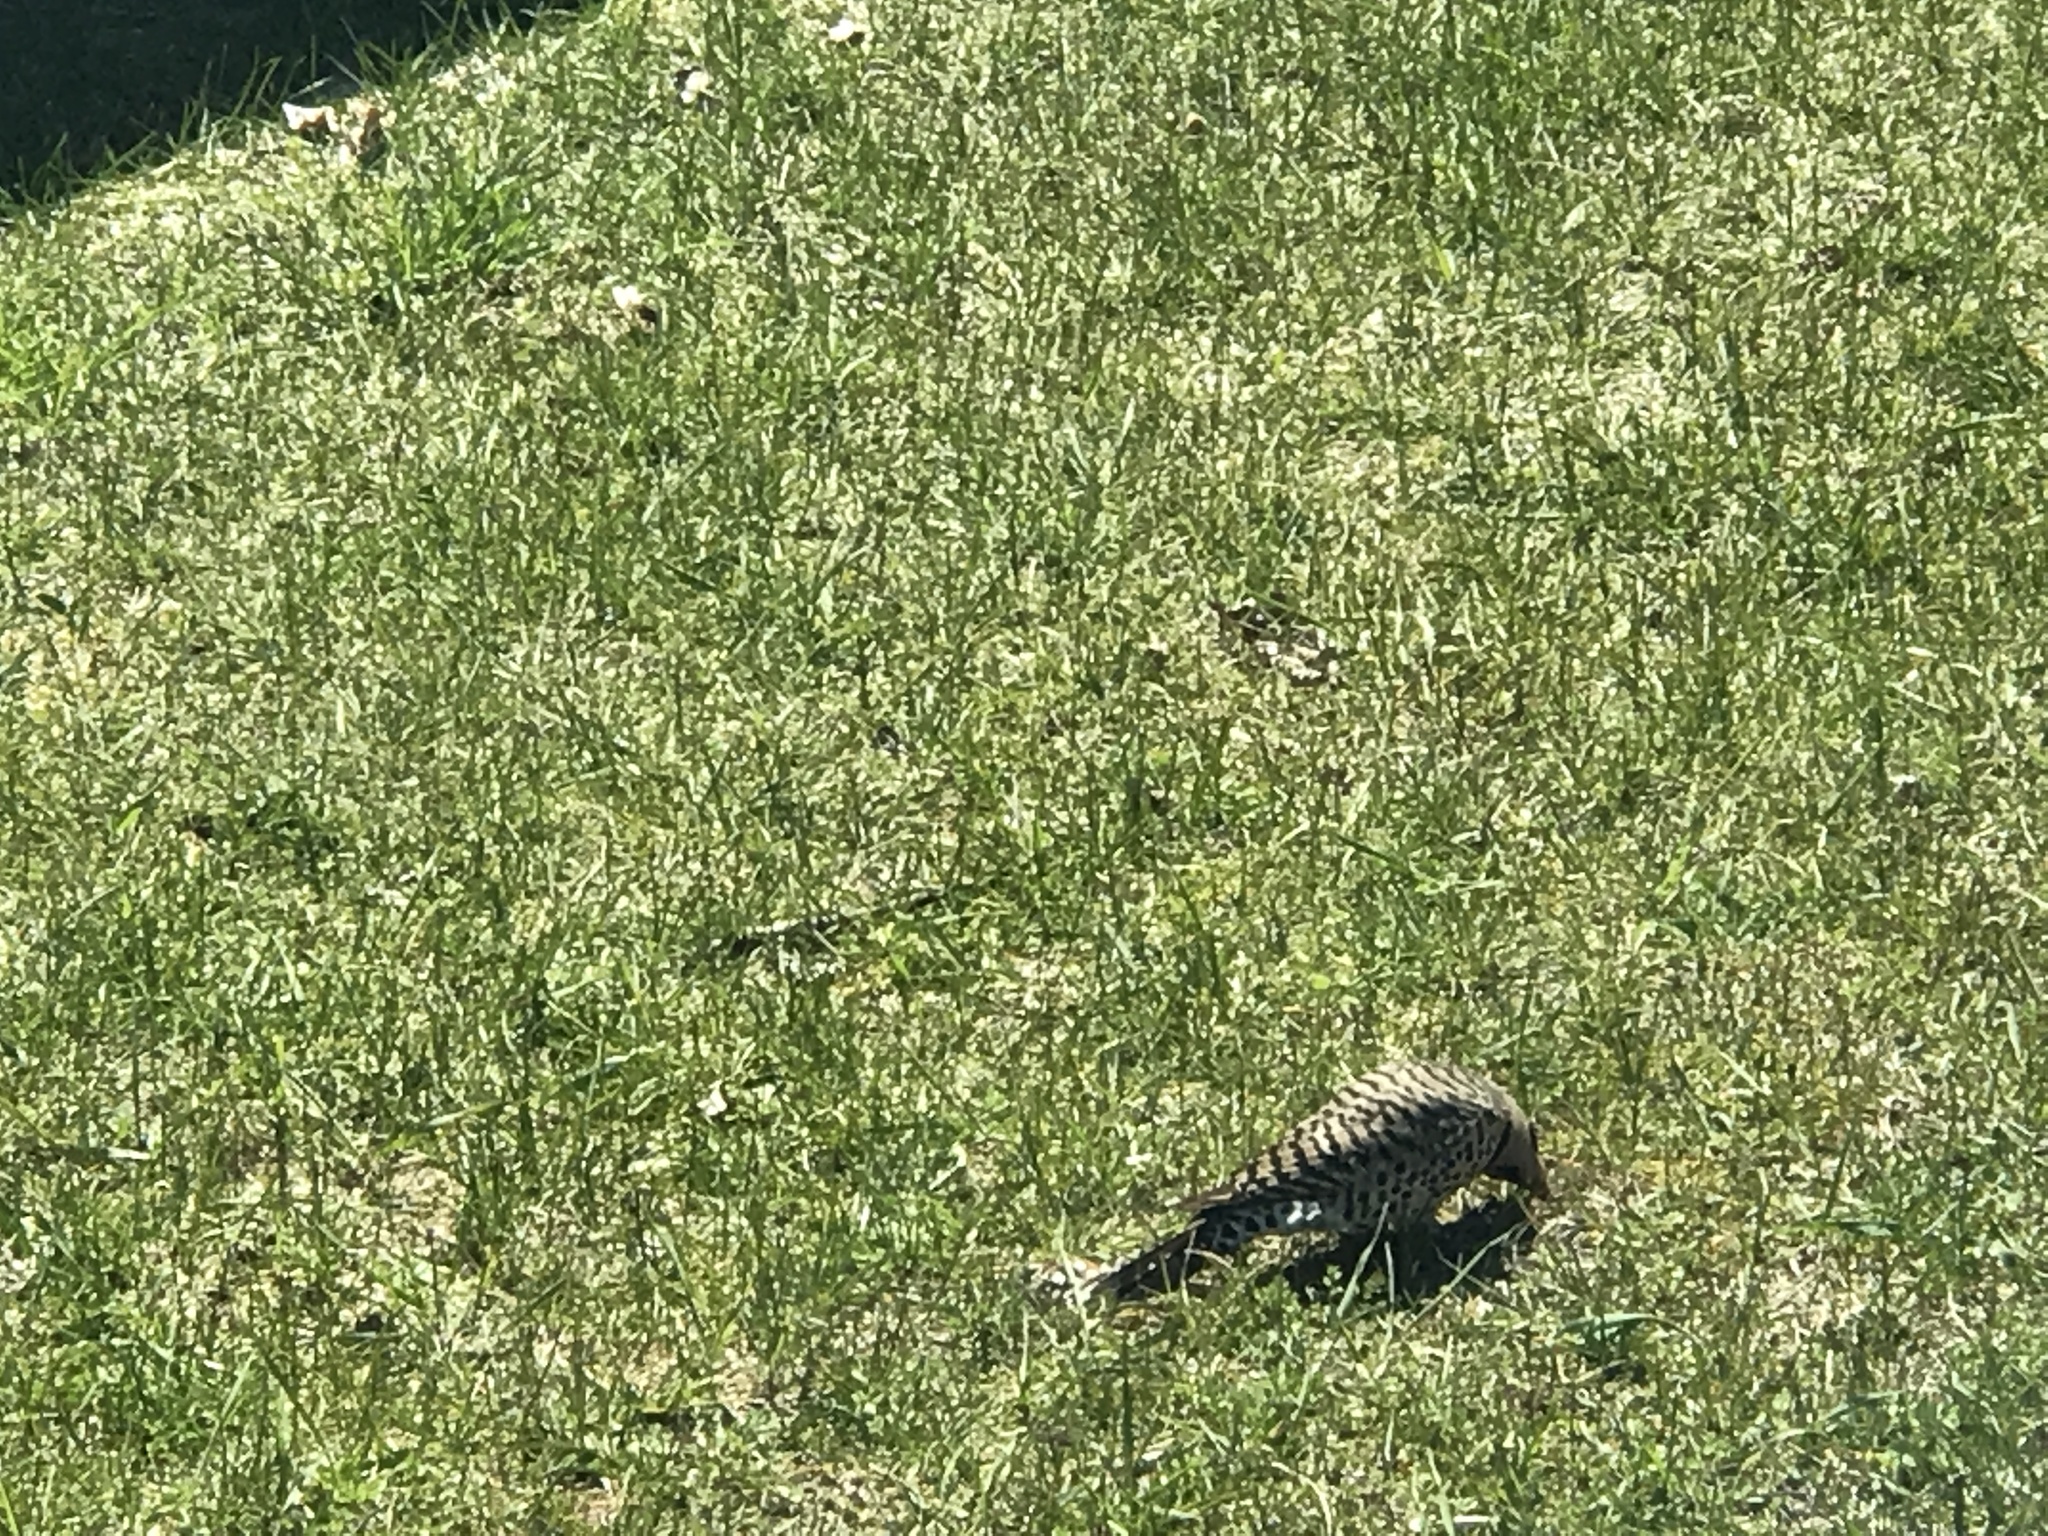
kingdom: Animalia
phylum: Chordata
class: Aves
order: Piciformes
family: Picidae
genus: Colaptes
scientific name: Colaptes auratus
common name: Northern flicker
